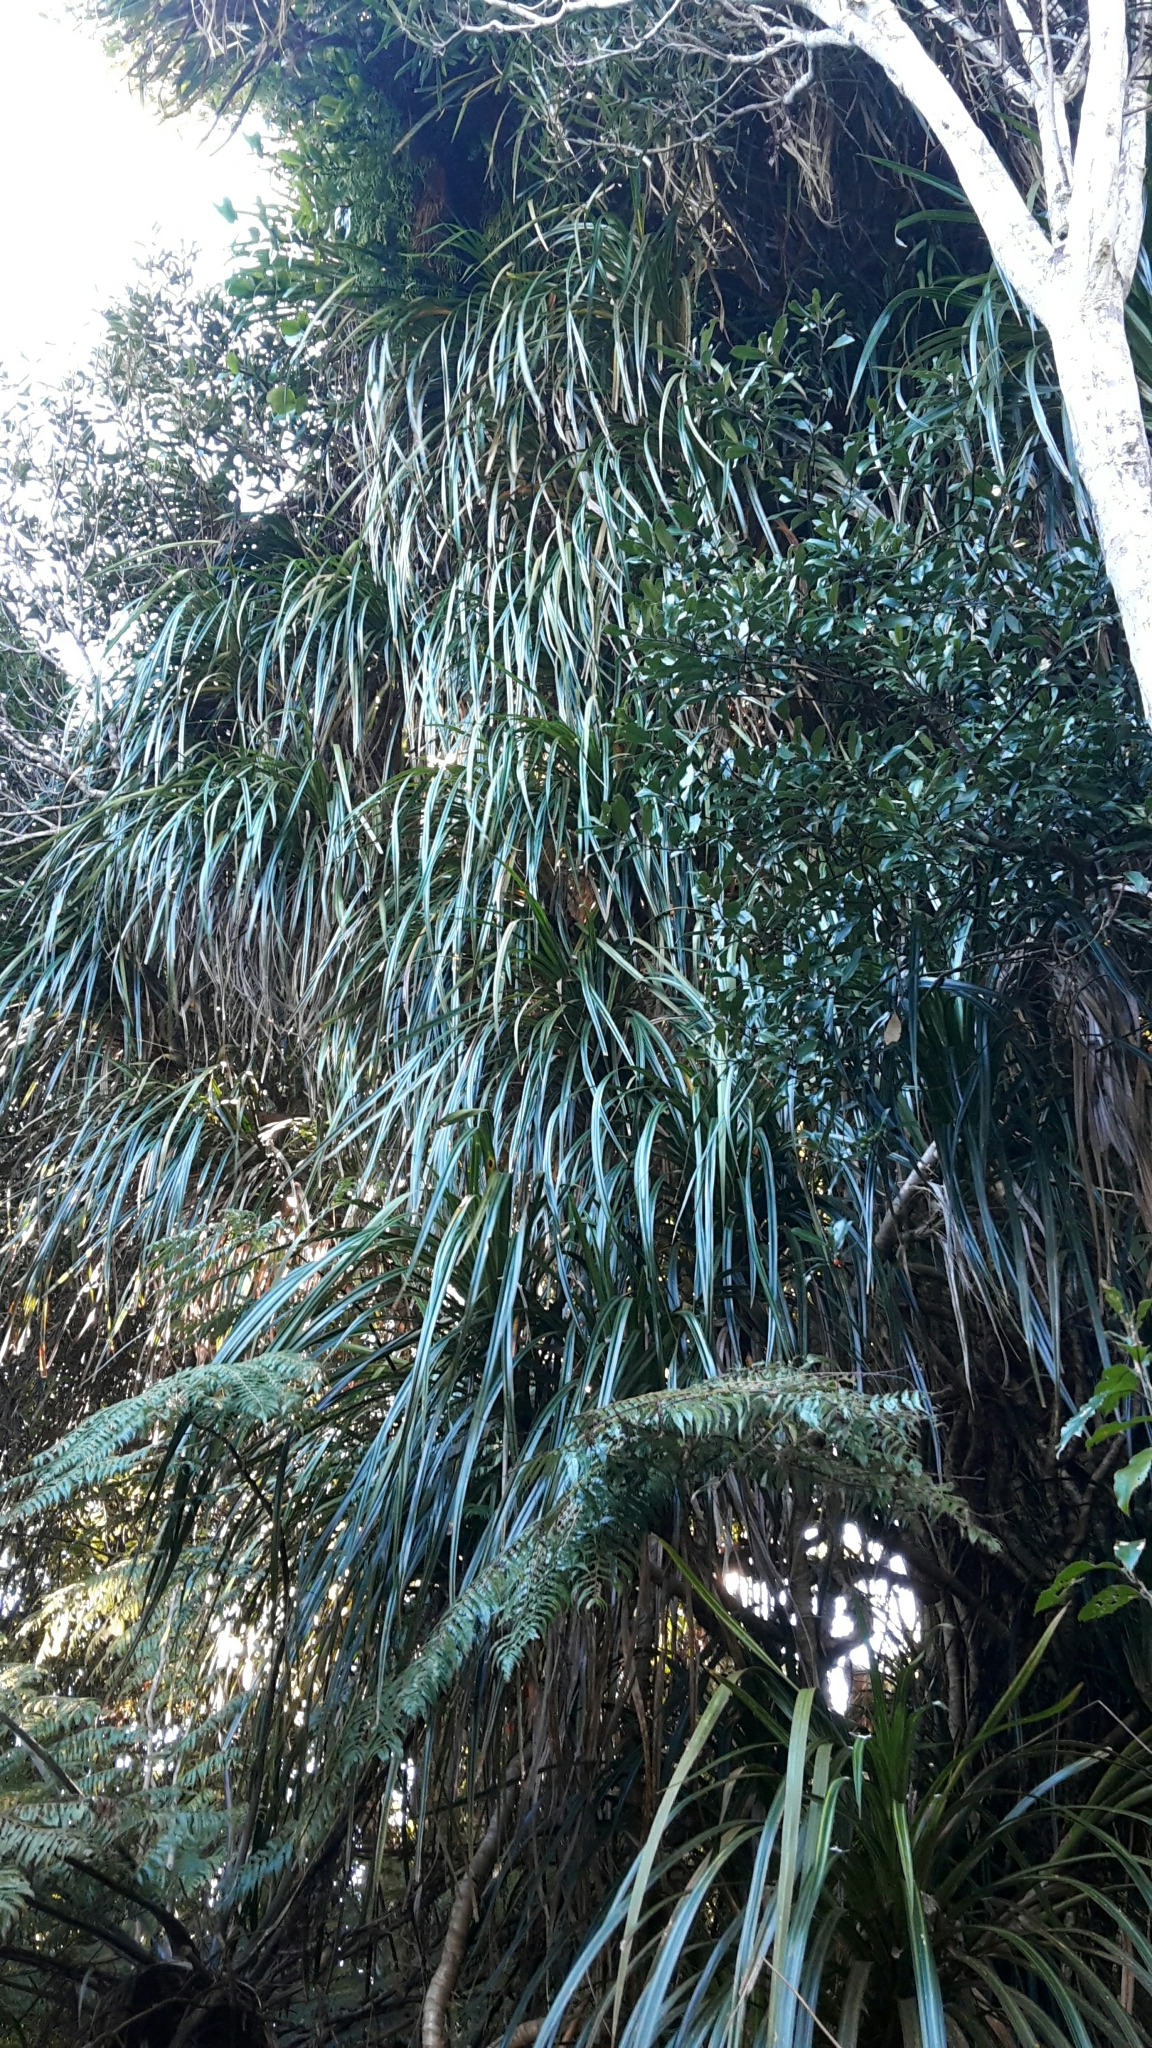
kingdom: Plantae
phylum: Tracheophyta
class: Liliopsida
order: Pandanales
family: Pandanaceae
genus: Freycinetia
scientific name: Freycinetia banksii
